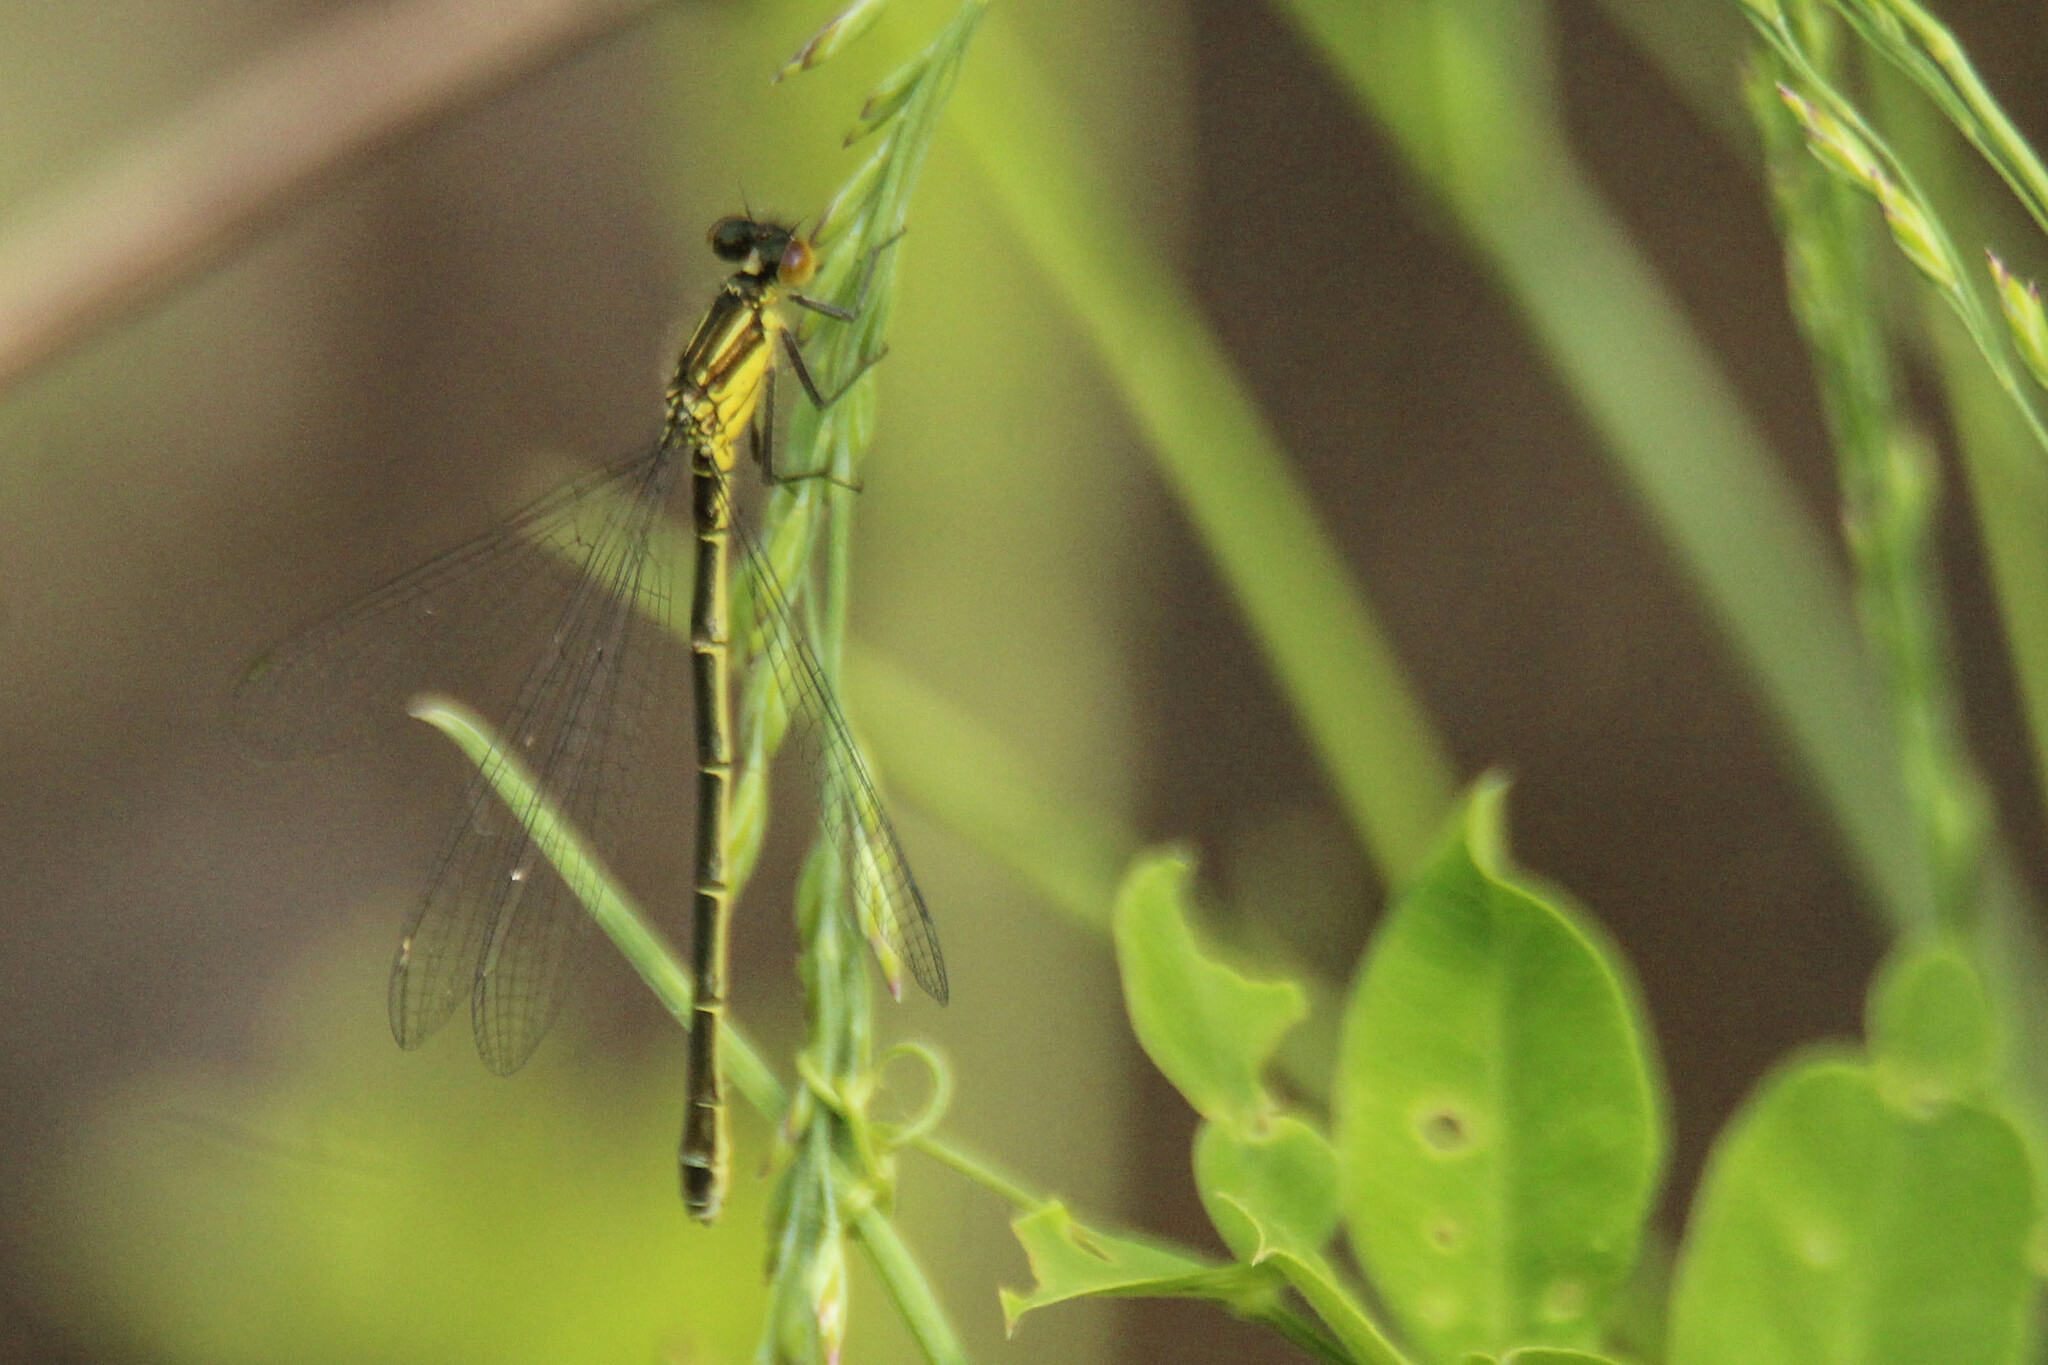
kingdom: Animalia
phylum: Arthropoda
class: Insecta
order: Odonata
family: Coenagrionidae
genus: Erythromma
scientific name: Erythromma najas
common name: Red-eyed damselfly
